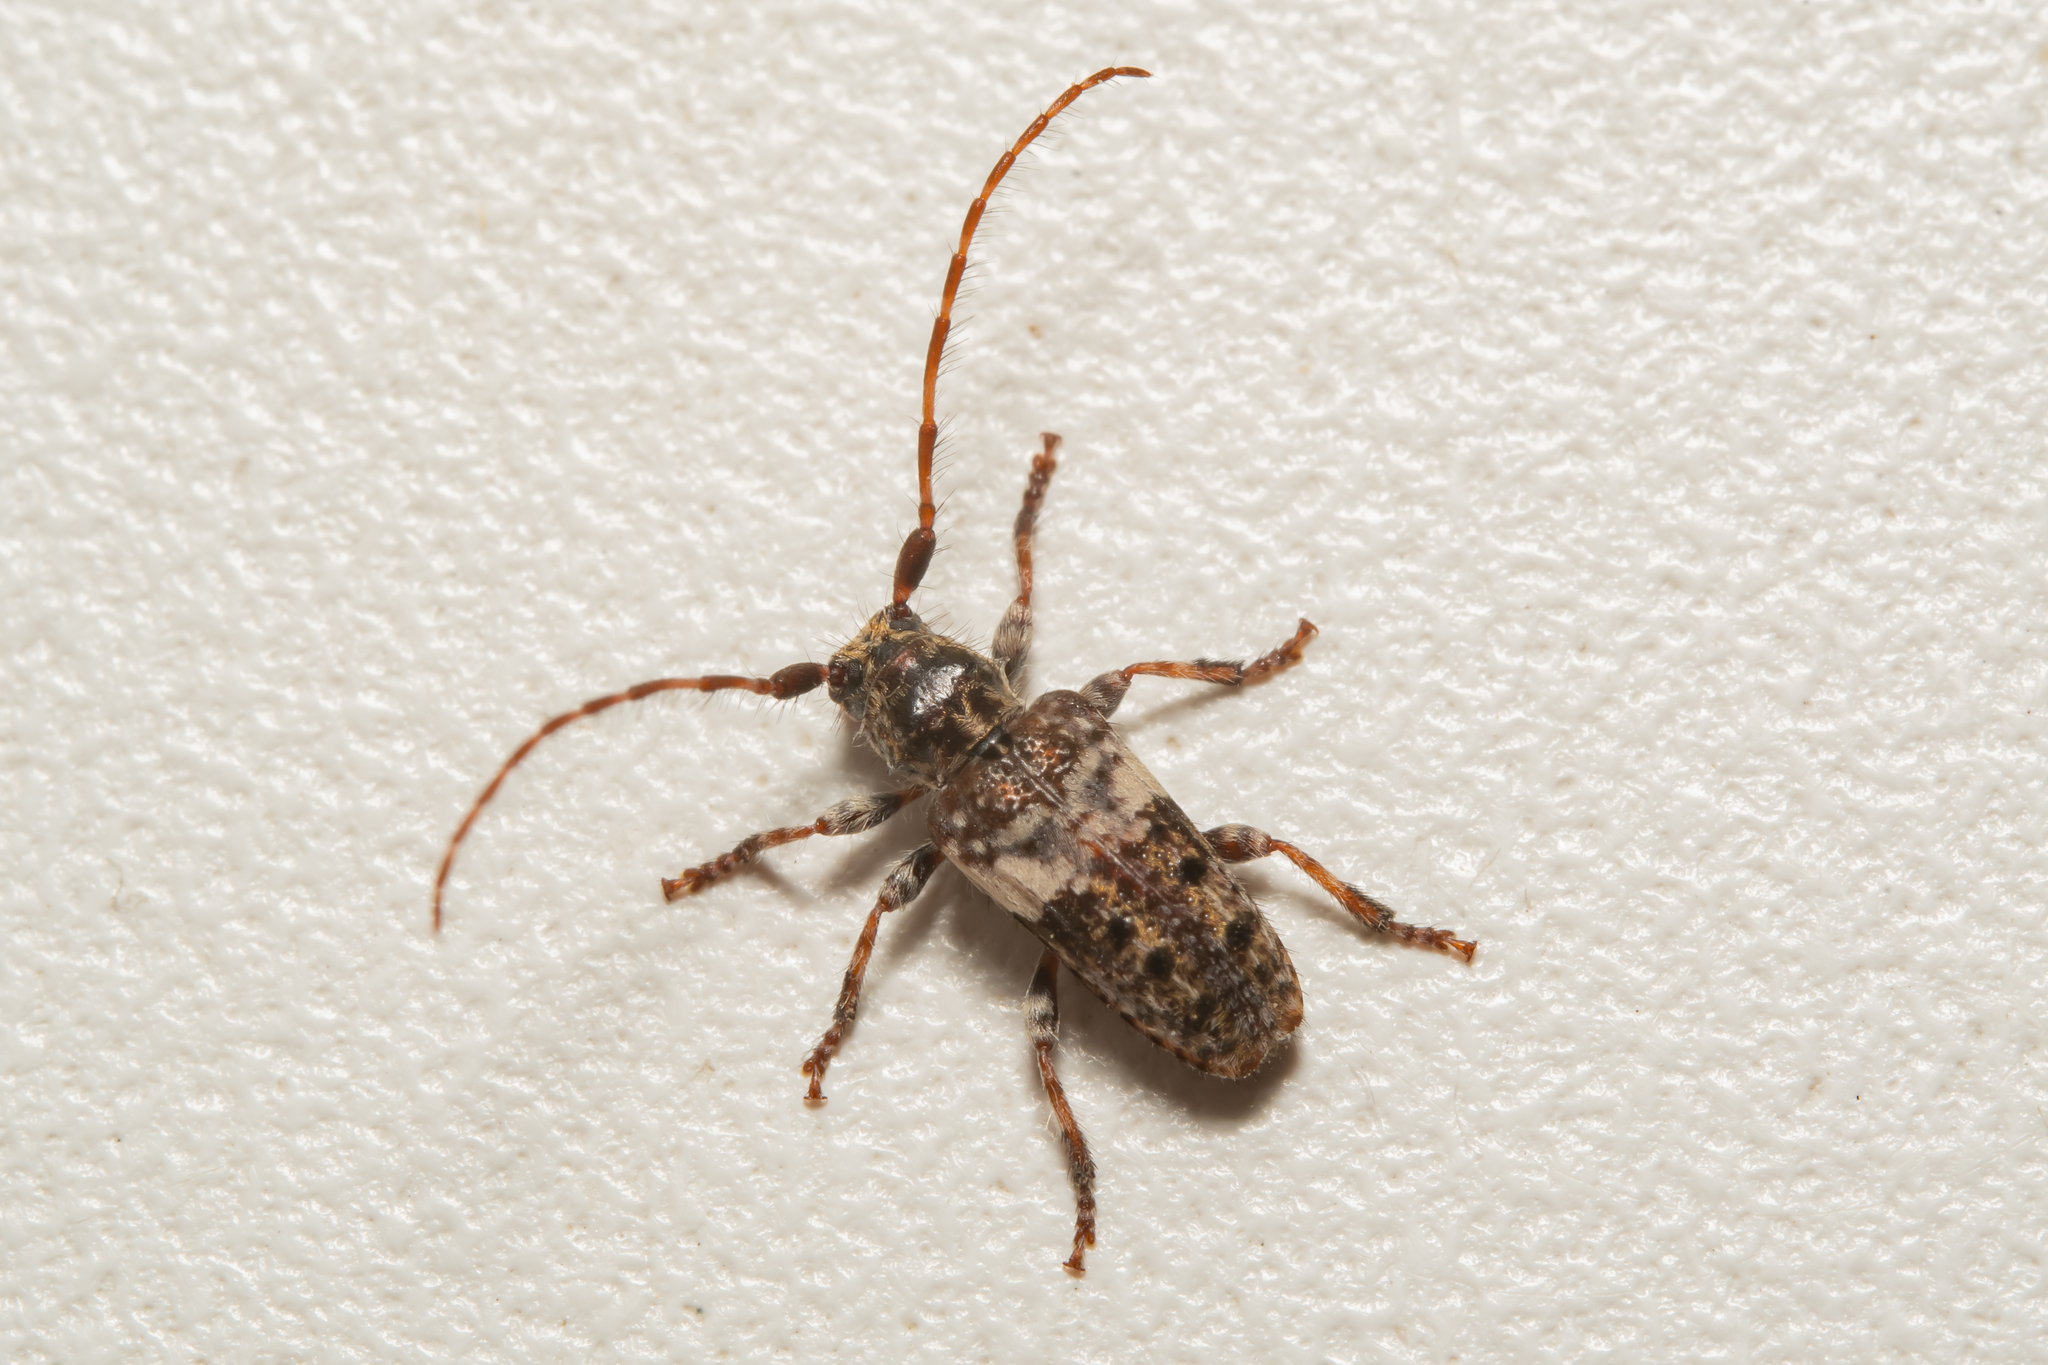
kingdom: Animalia
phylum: Arthropoda
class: Insecta
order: Coleoptera
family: Cerambycidae
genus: Pogonocherus
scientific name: Pogonocherus fasciculatus
